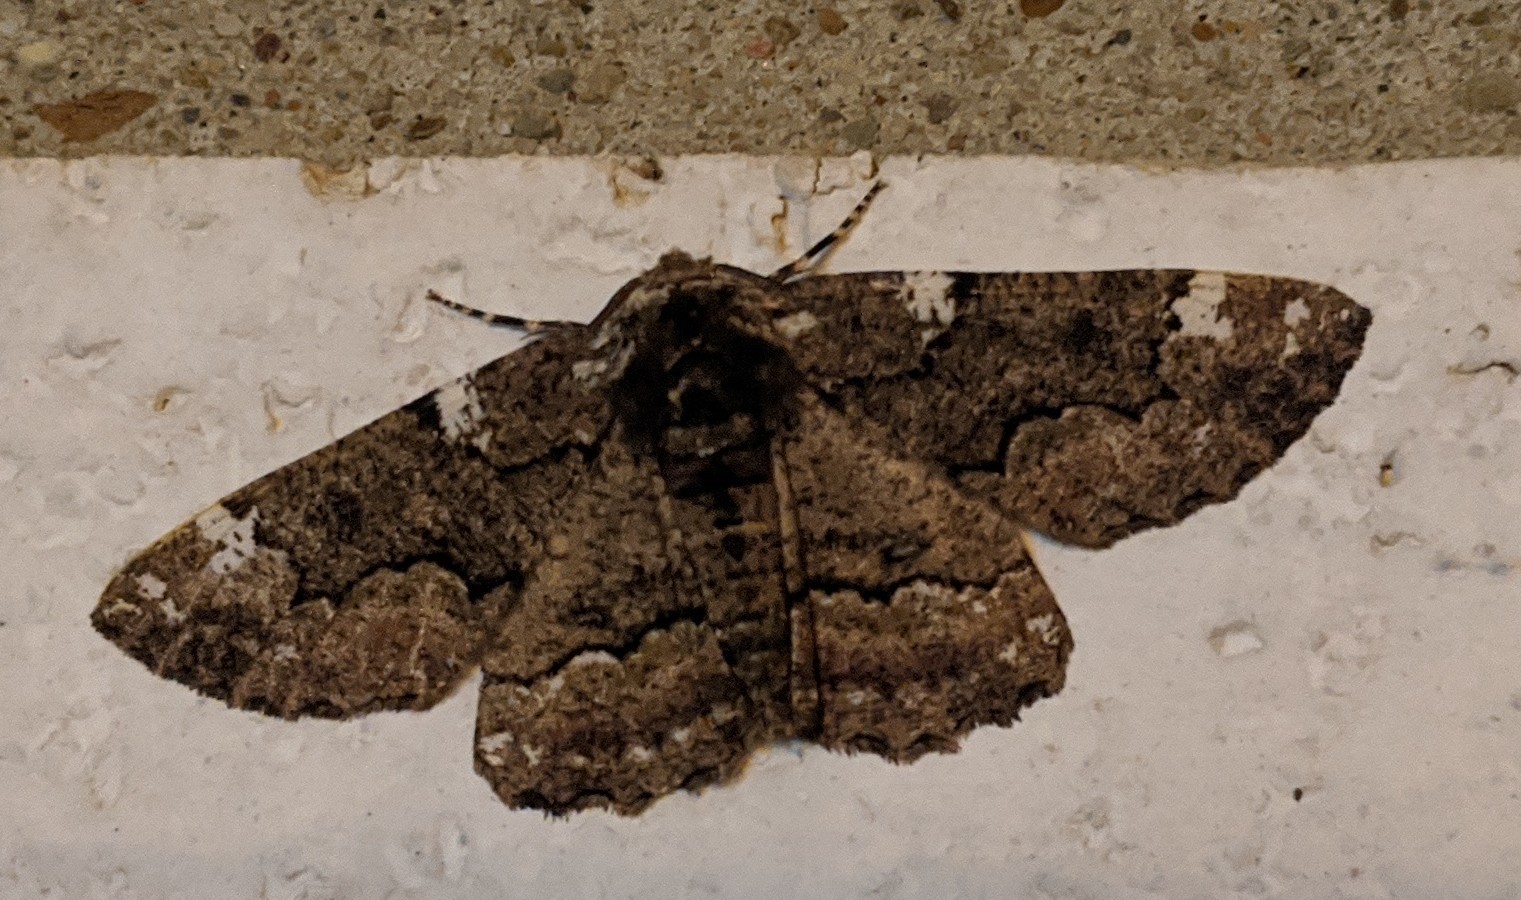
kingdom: Animalia
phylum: Arthropoda
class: Insecta
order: Lepidoptera
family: Geometridae
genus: Phaeoura
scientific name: Phaeoura quernaria
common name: Oak beauty
